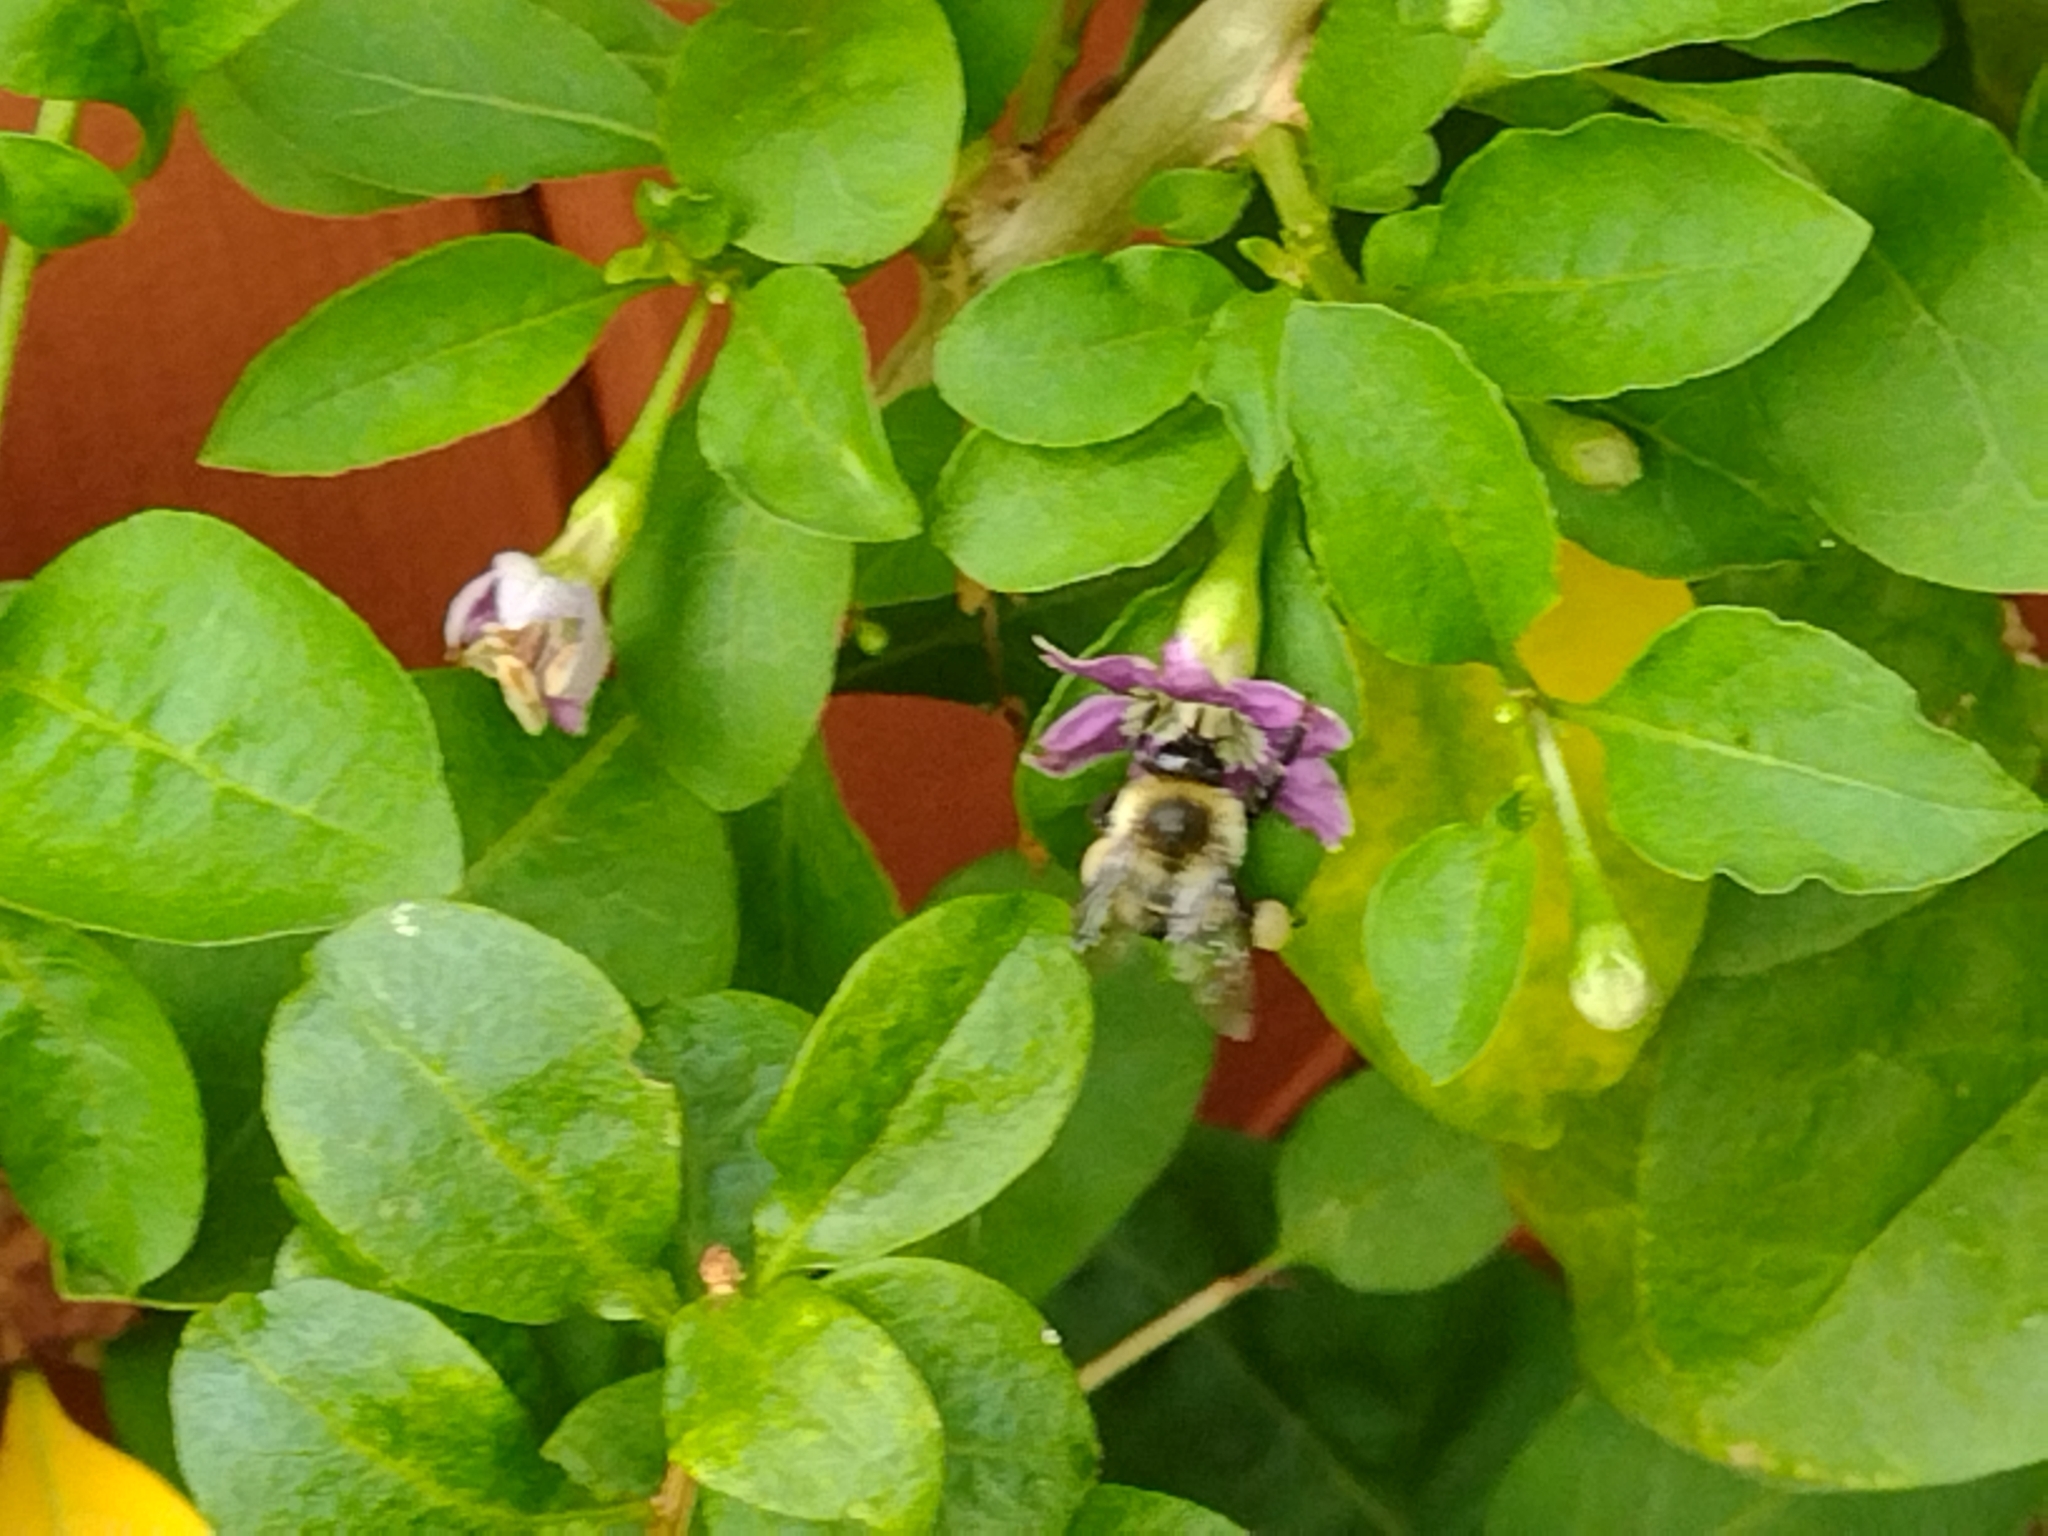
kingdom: Animalia
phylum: Arthropoda
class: Insecta
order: Hymenoptera
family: Apidae
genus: Bombus
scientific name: Bombus impatiens
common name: Common eastern bumble bee
